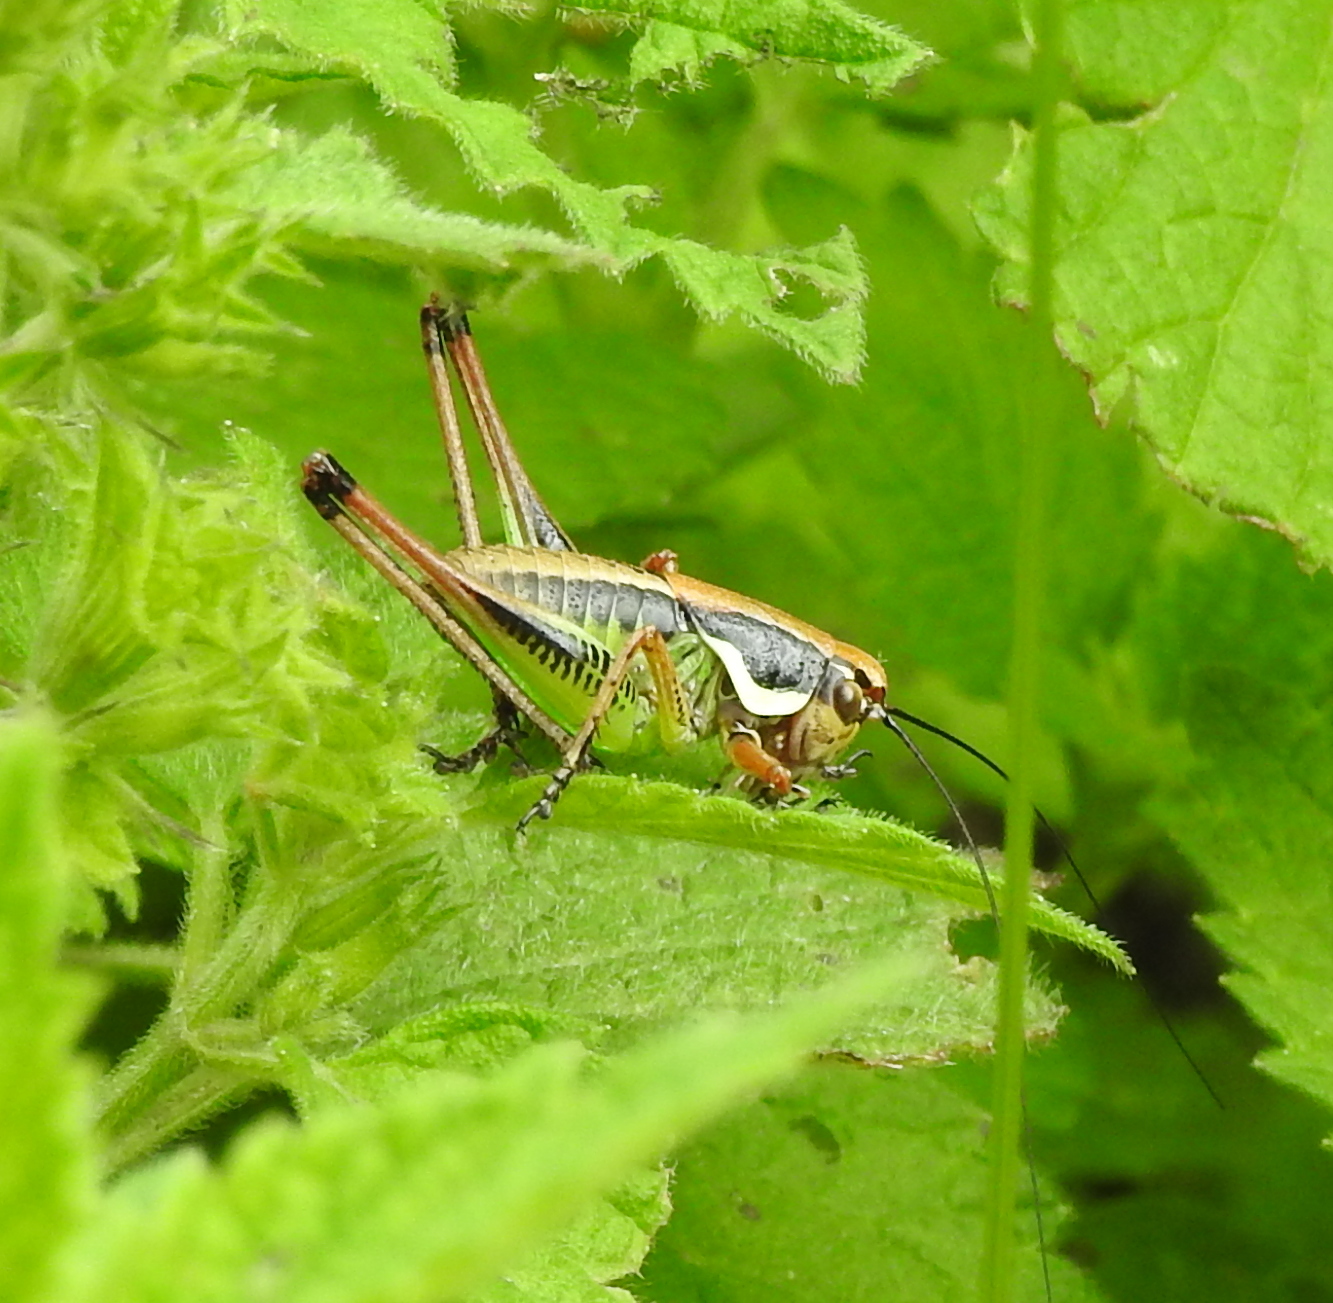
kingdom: Animalia
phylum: Arthropoda
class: Insecta
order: Orthoptera
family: Tettigoniidae
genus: Eupholidoptera
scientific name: Eupholidoptera chabrieri
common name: Chabrier's marbled bush-cricket
